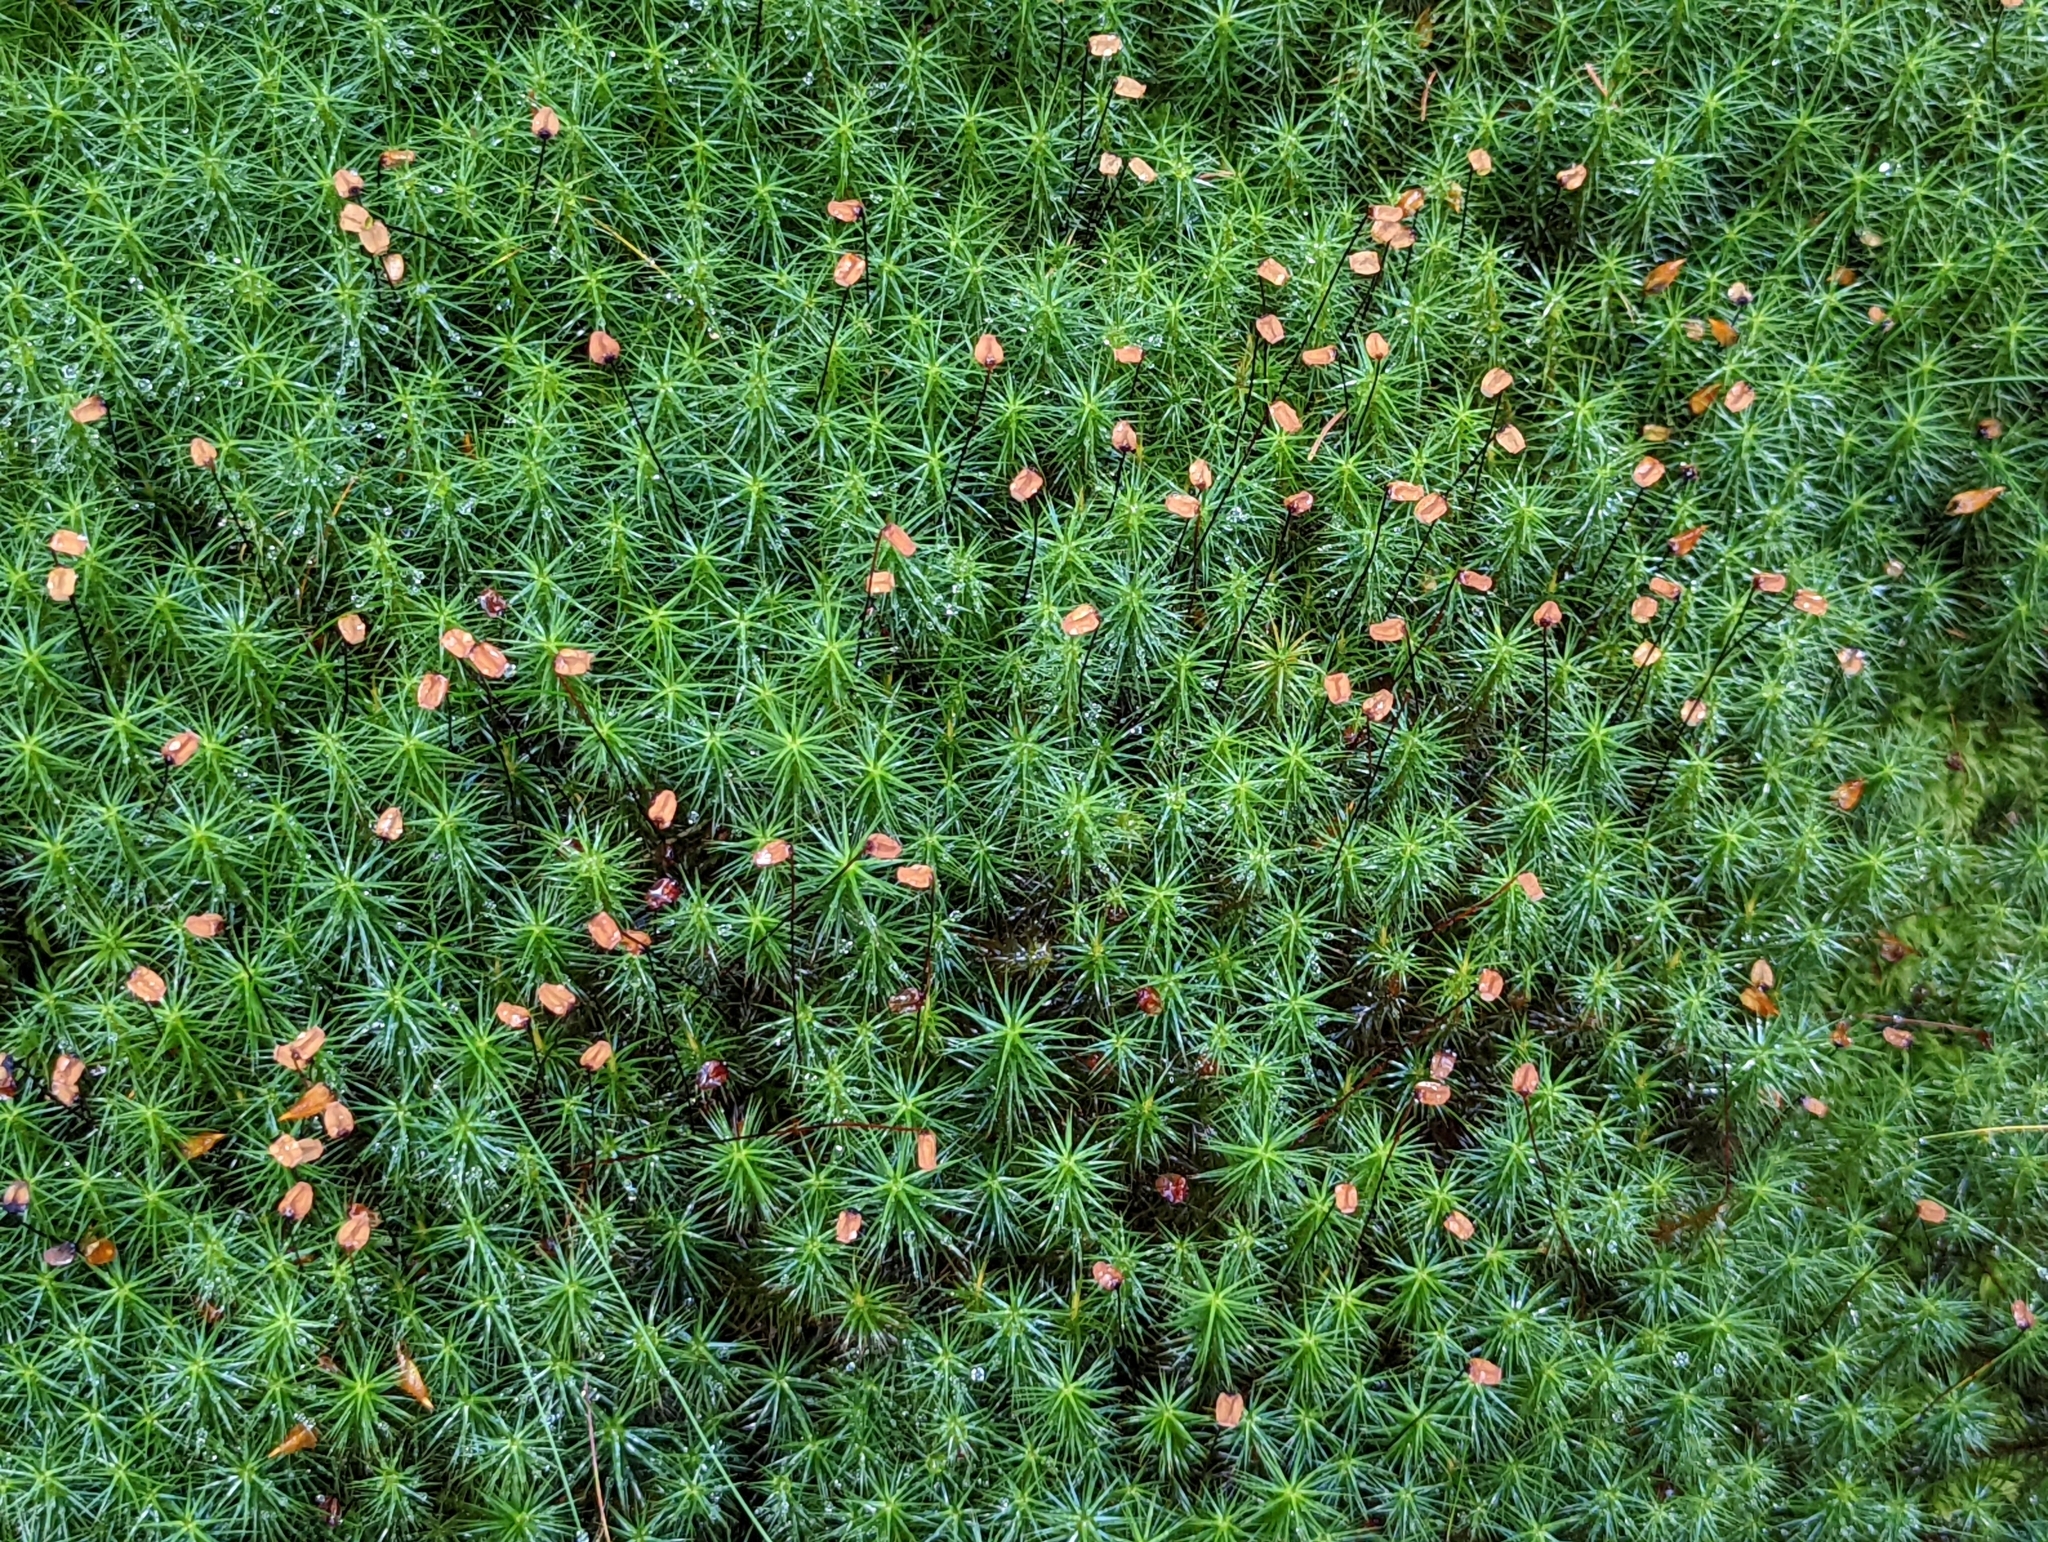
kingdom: Plantae
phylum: Bryophyta
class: Polytrichopsida
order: Polytrichales
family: Polytrichaceae
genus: Polytrichum
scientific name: Polytrichum commune
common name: Common haircap
